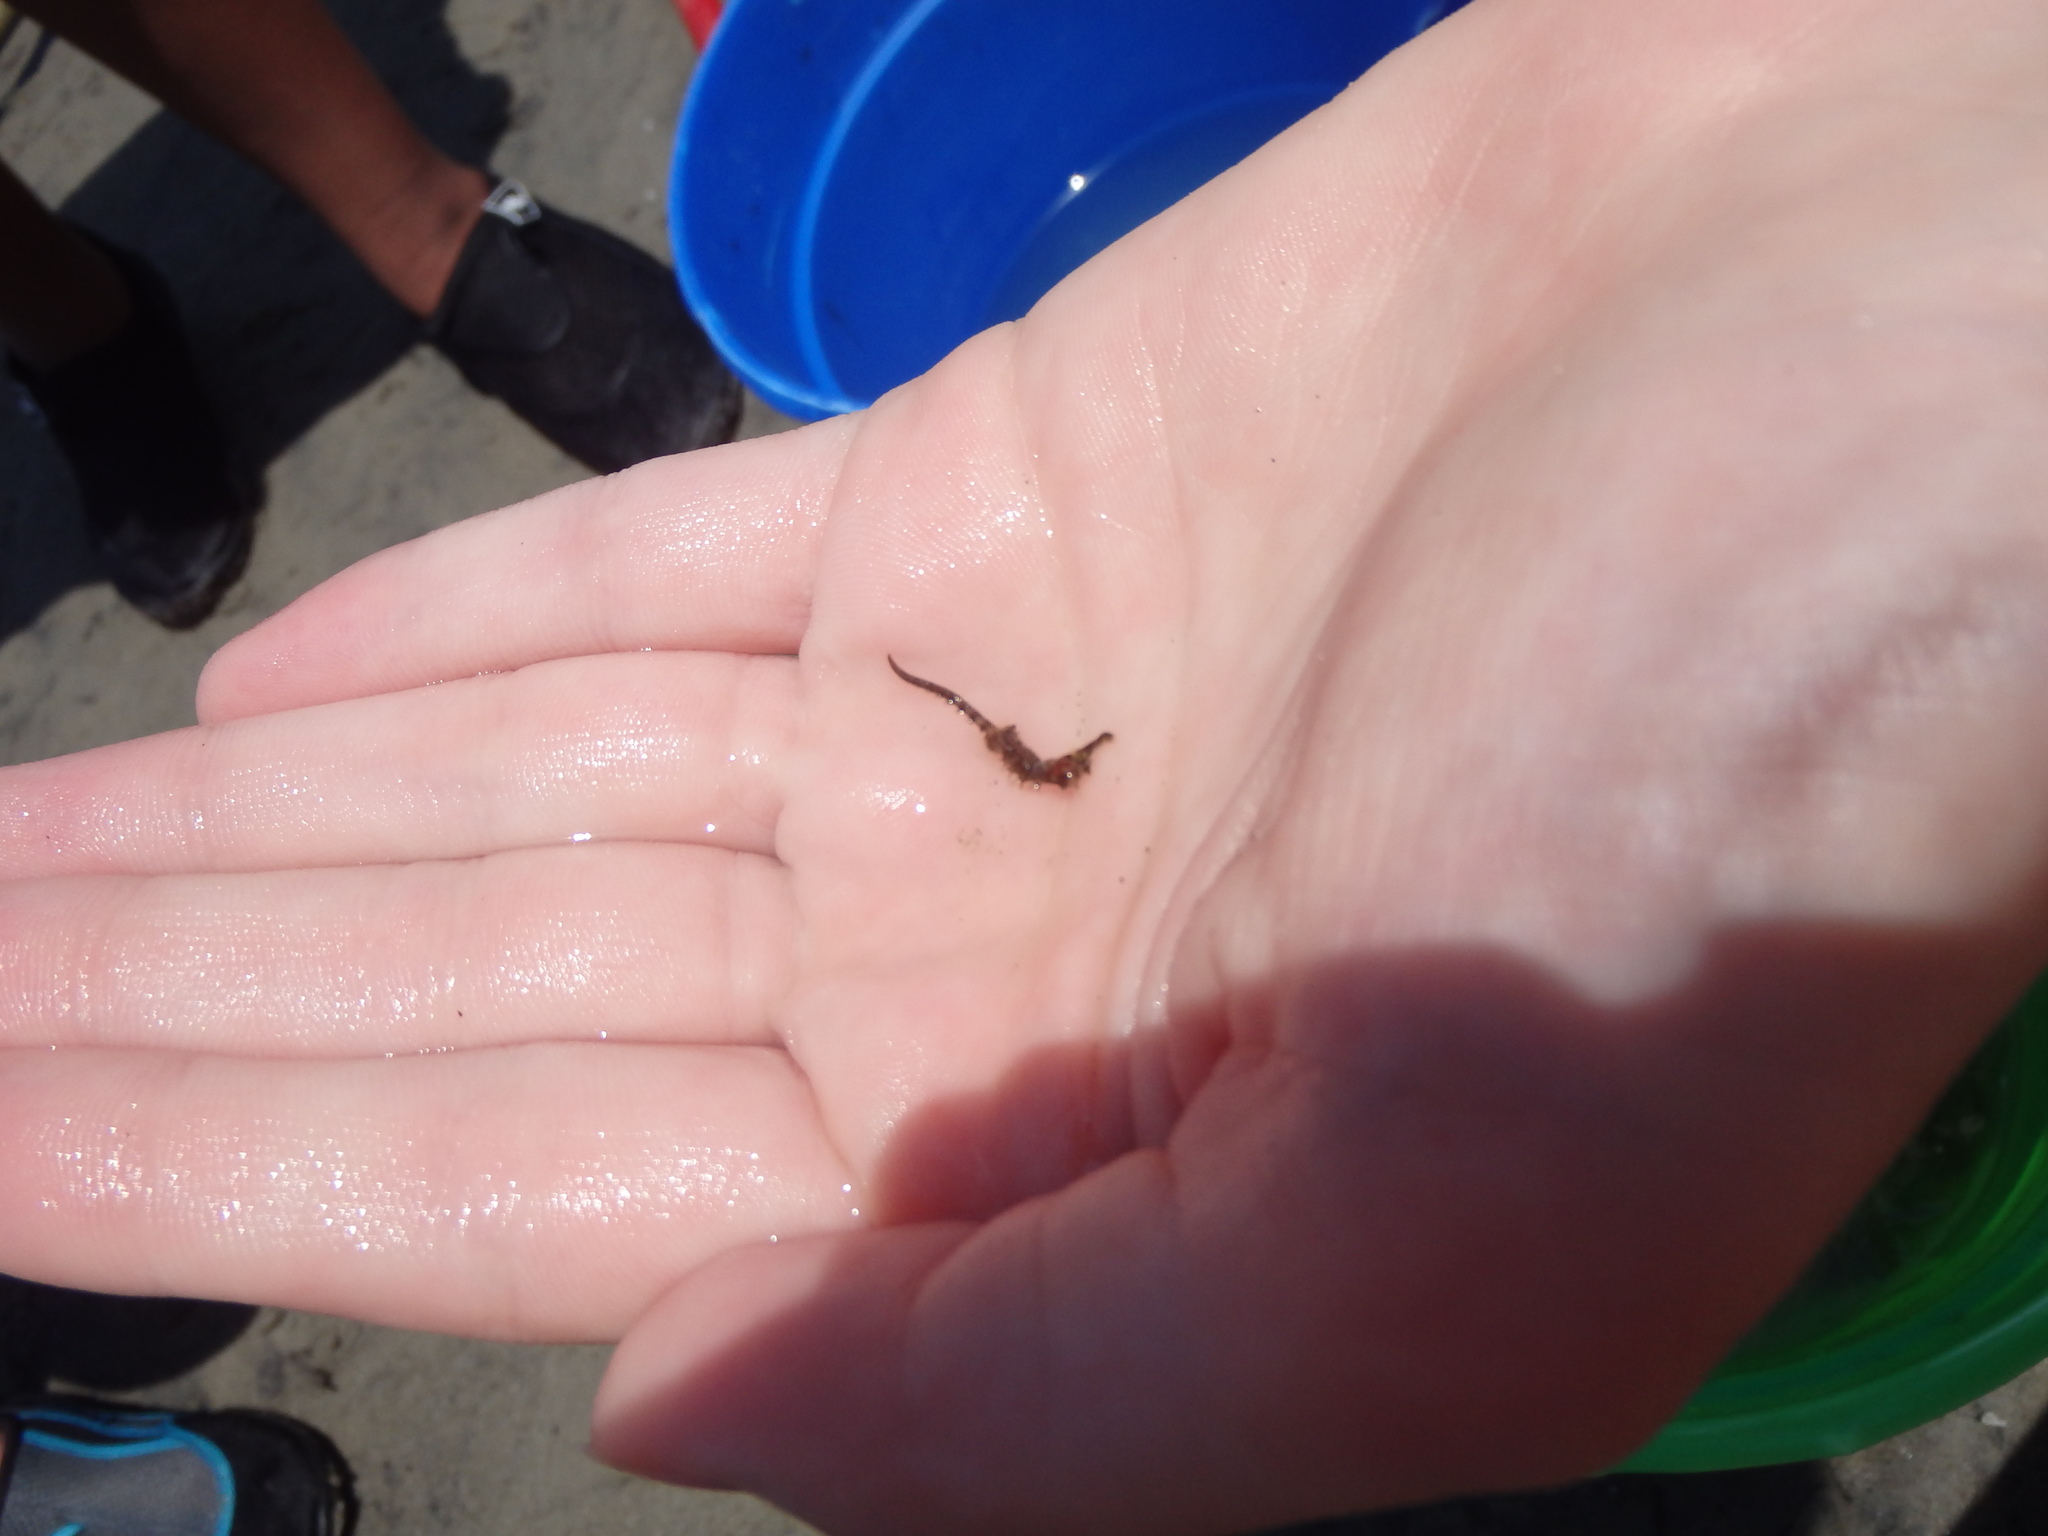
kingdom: Animalia
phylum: Chordata
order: Syngnathiformes
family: Syngnathidae
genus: Hippocampus
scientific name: Hippocampus erectus
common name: Lined seahorse
